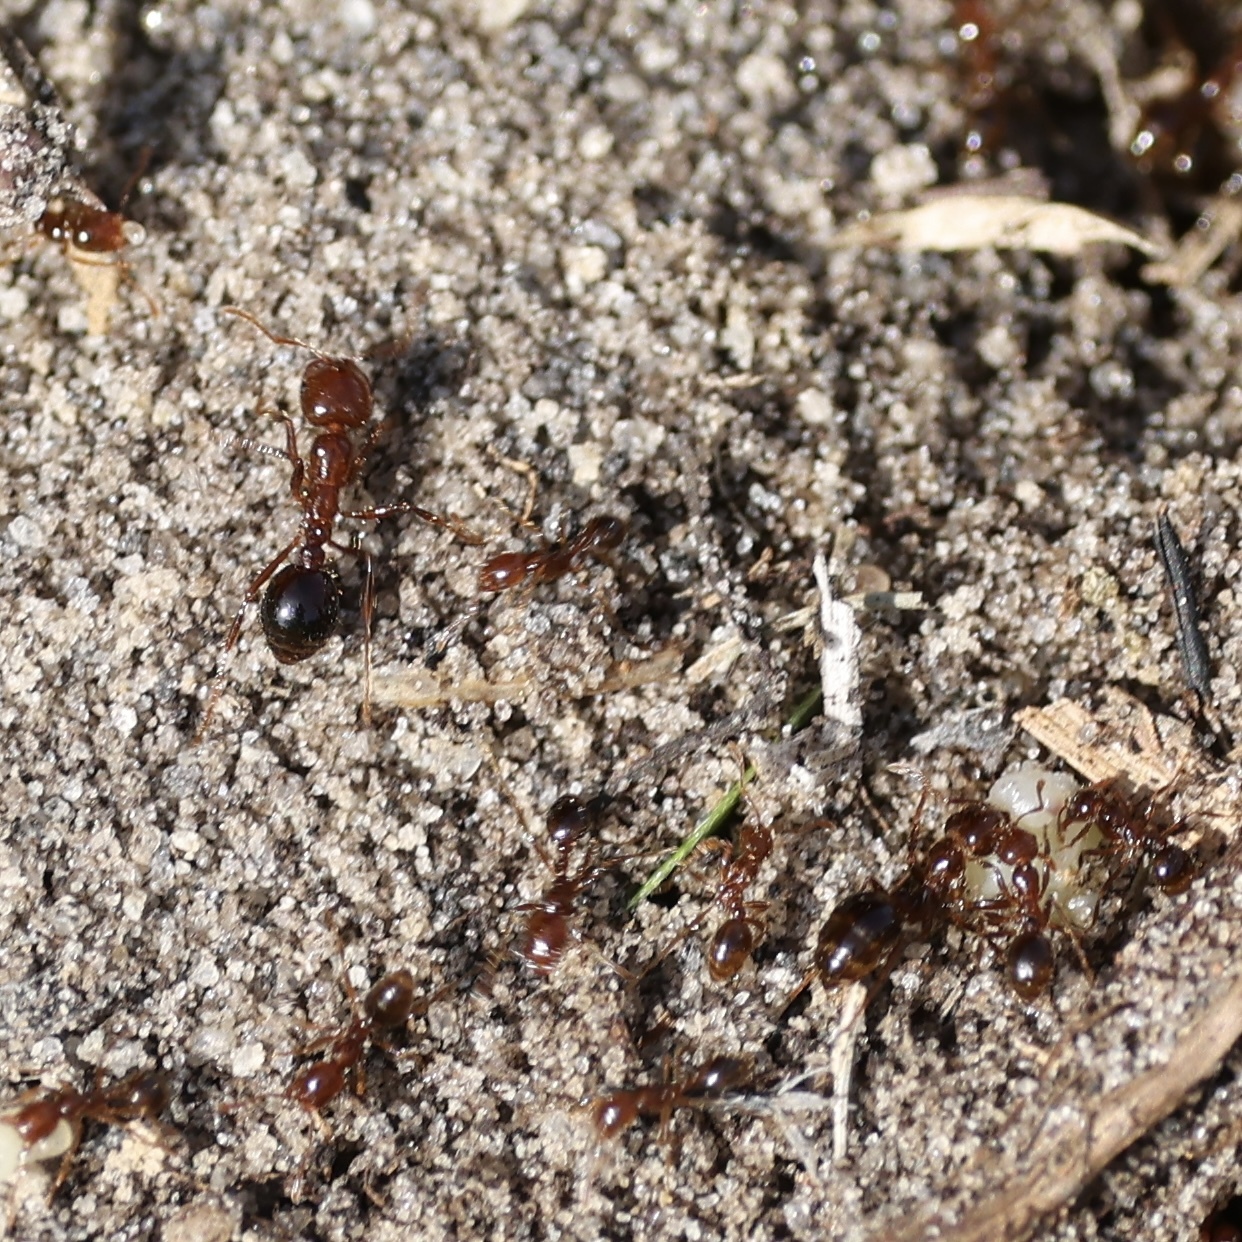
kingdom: Animalia
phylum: Arthropoda
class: Insecta
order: Hymenoptera
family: Formicidae
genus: Solenopsis
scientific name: Solenopsis invicta
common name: Red imported fire ant
